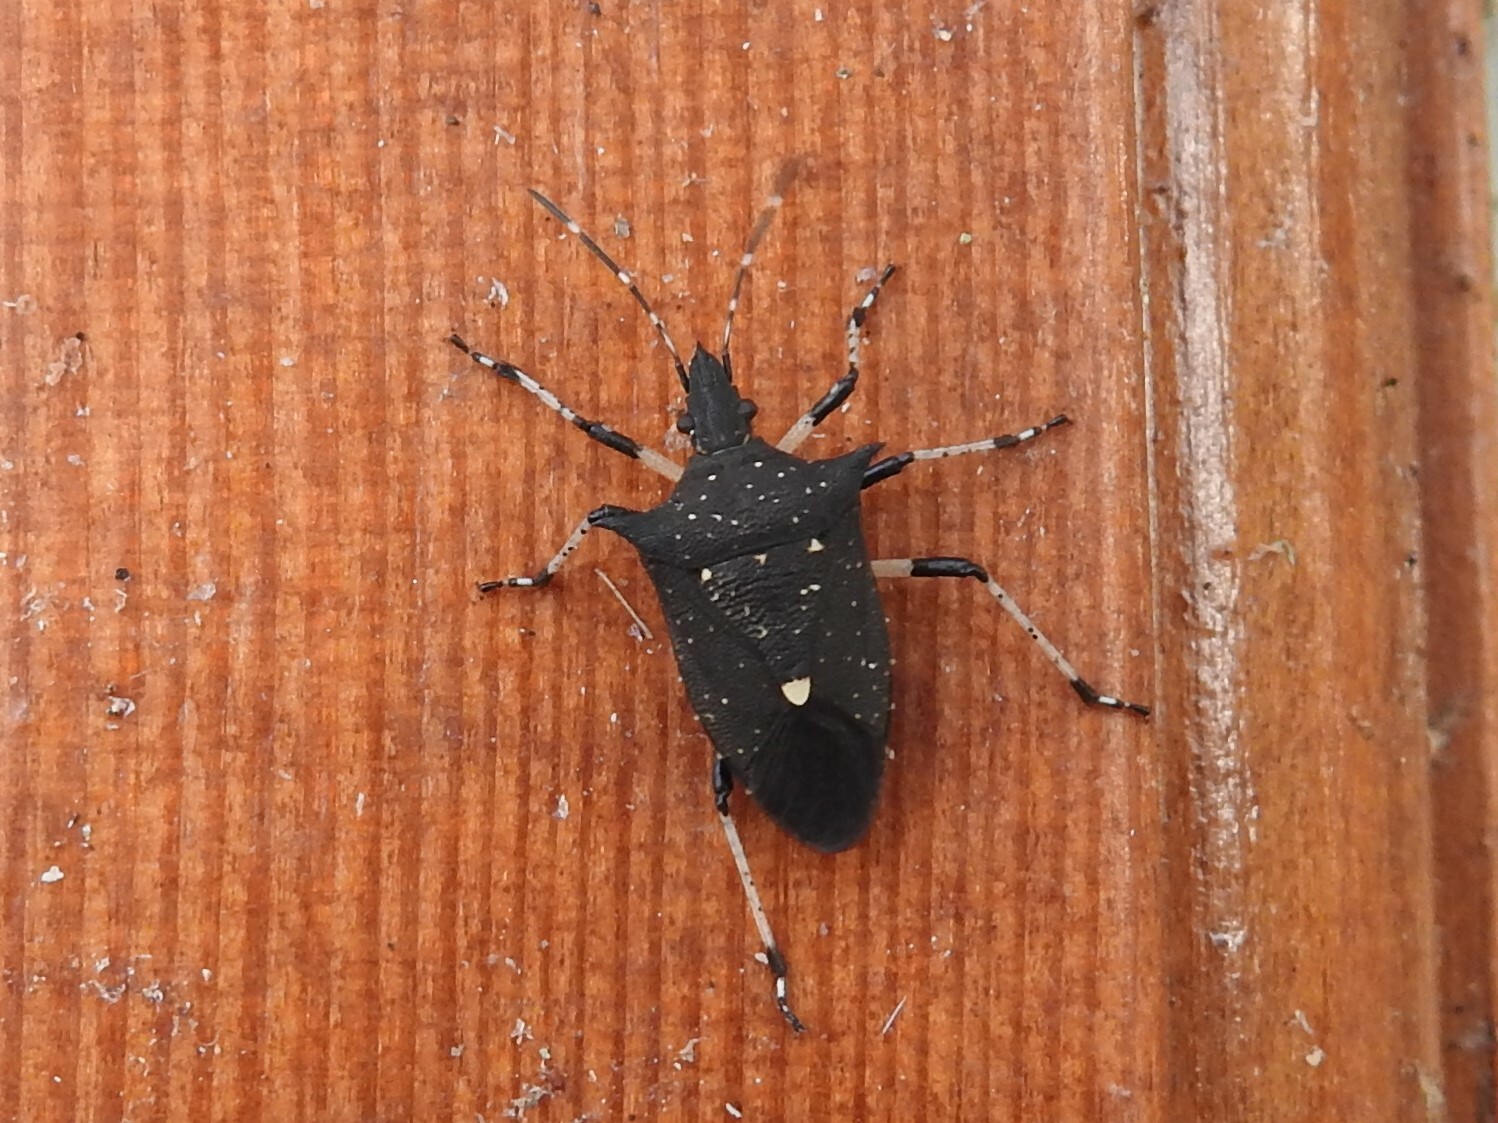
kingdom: Animalia
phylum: Arthropoda
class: Insecta
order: Hemiptera
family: Pentatomidae
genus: Proxys
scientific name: Proxys punctulatus
